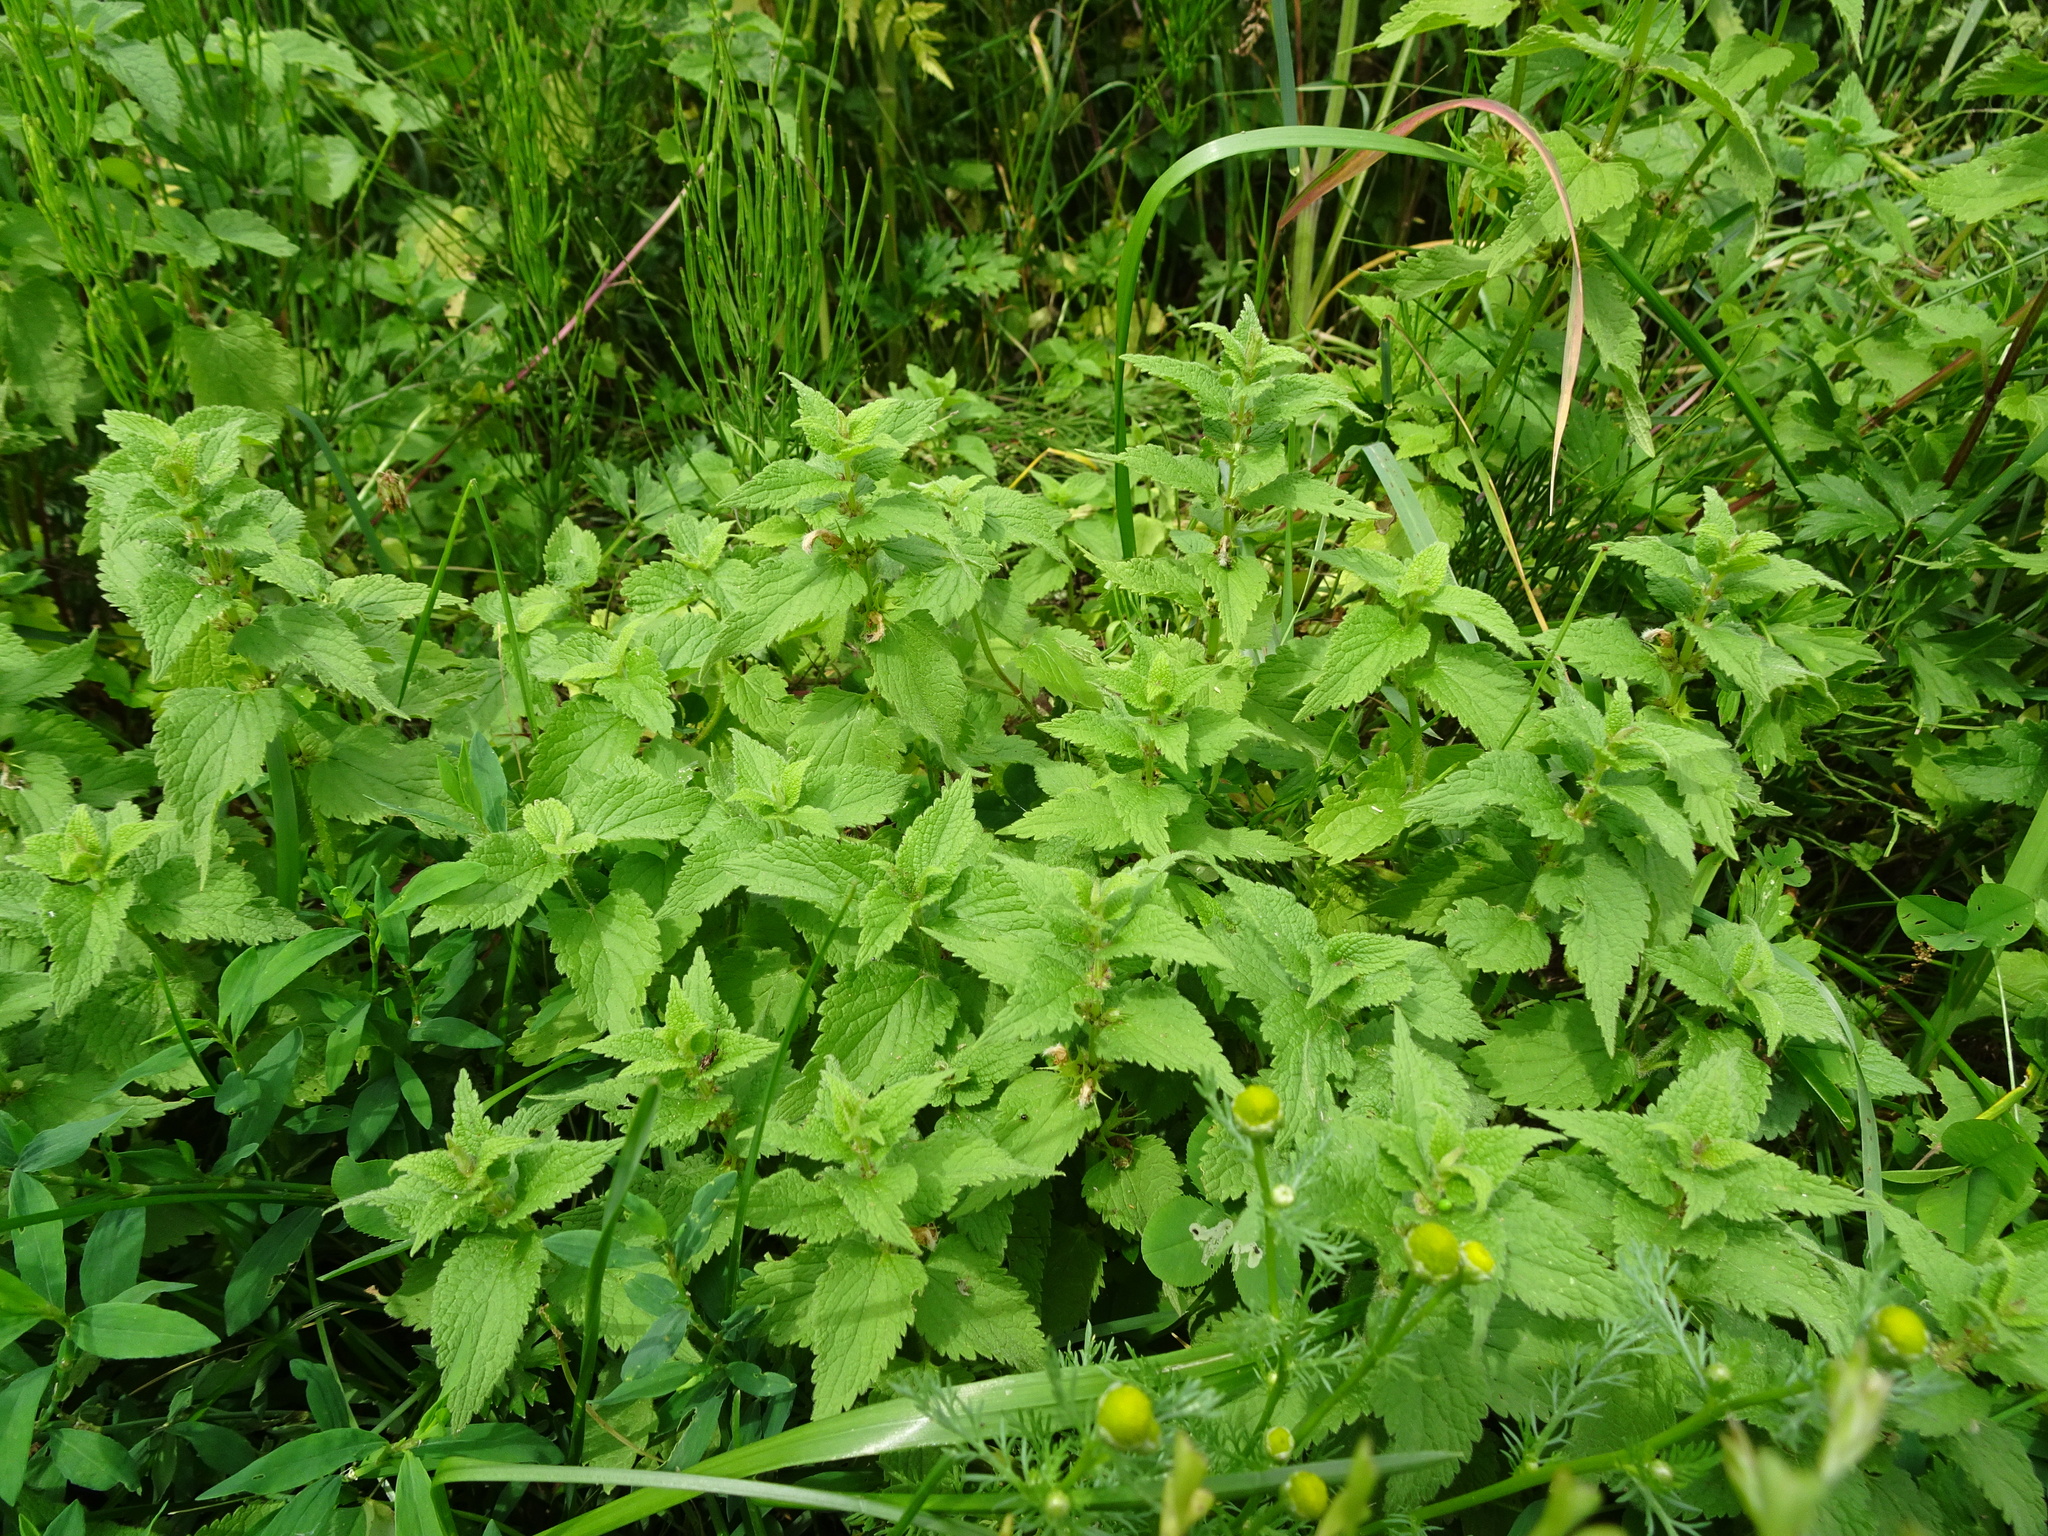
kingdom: Plantae
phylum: Tracheophyta
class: Magnoliopsida
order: Lamiales
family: Lamiaceae
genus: Lamium
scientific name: Lamium album
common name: White dead-nettle
